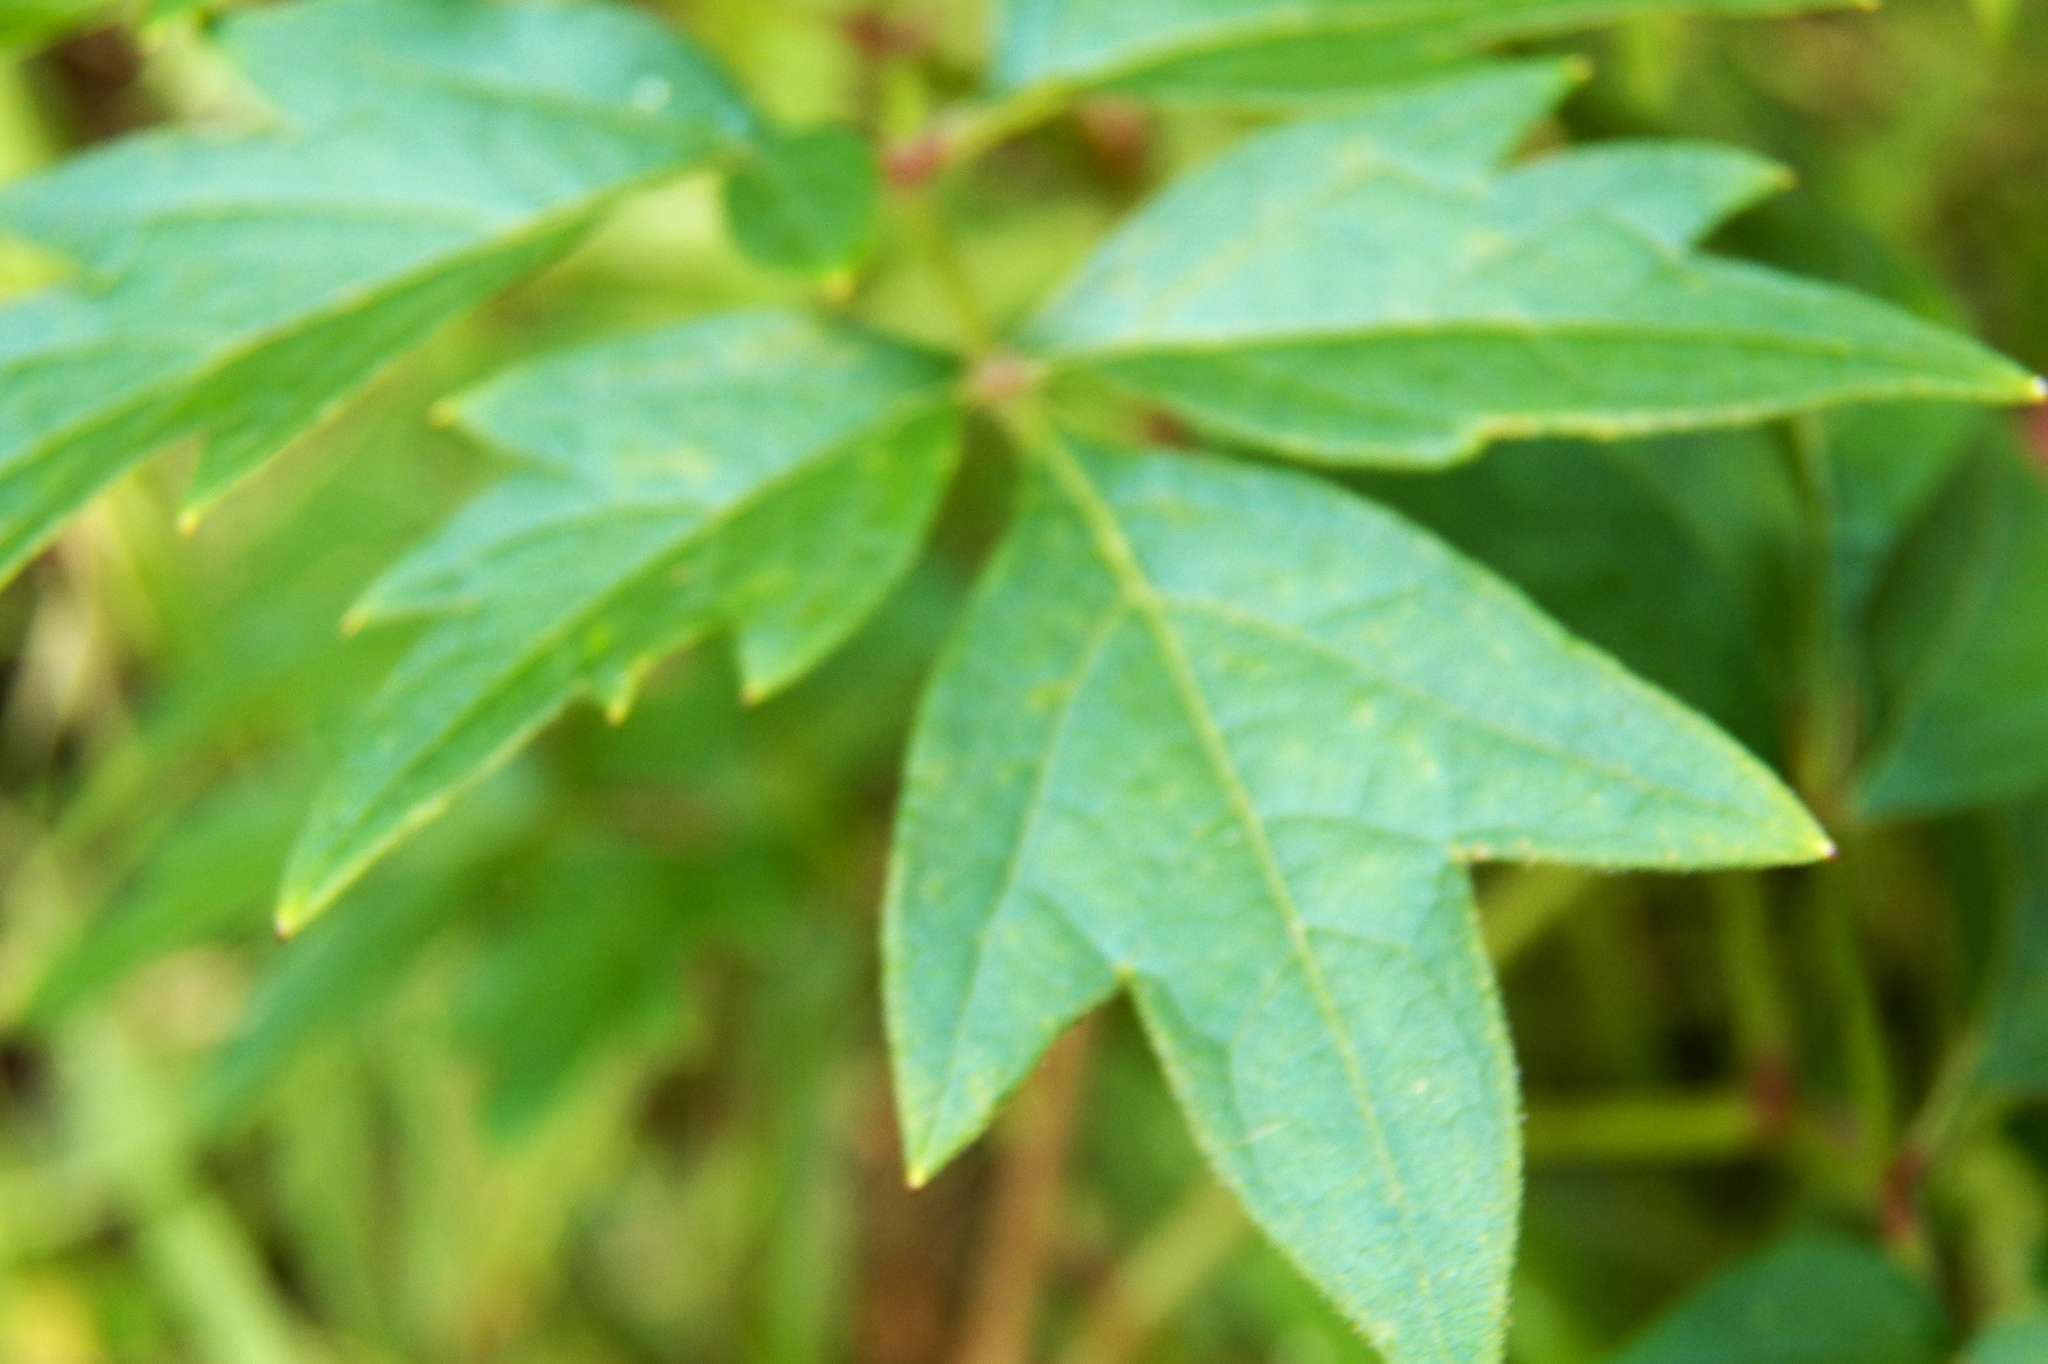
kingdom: Plantae
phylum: Tracheophyta
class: Magnoliopsida
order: Vitales
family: Vitaceae
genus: Nekemias
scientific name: Nekemias arborea
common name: Peppervine
